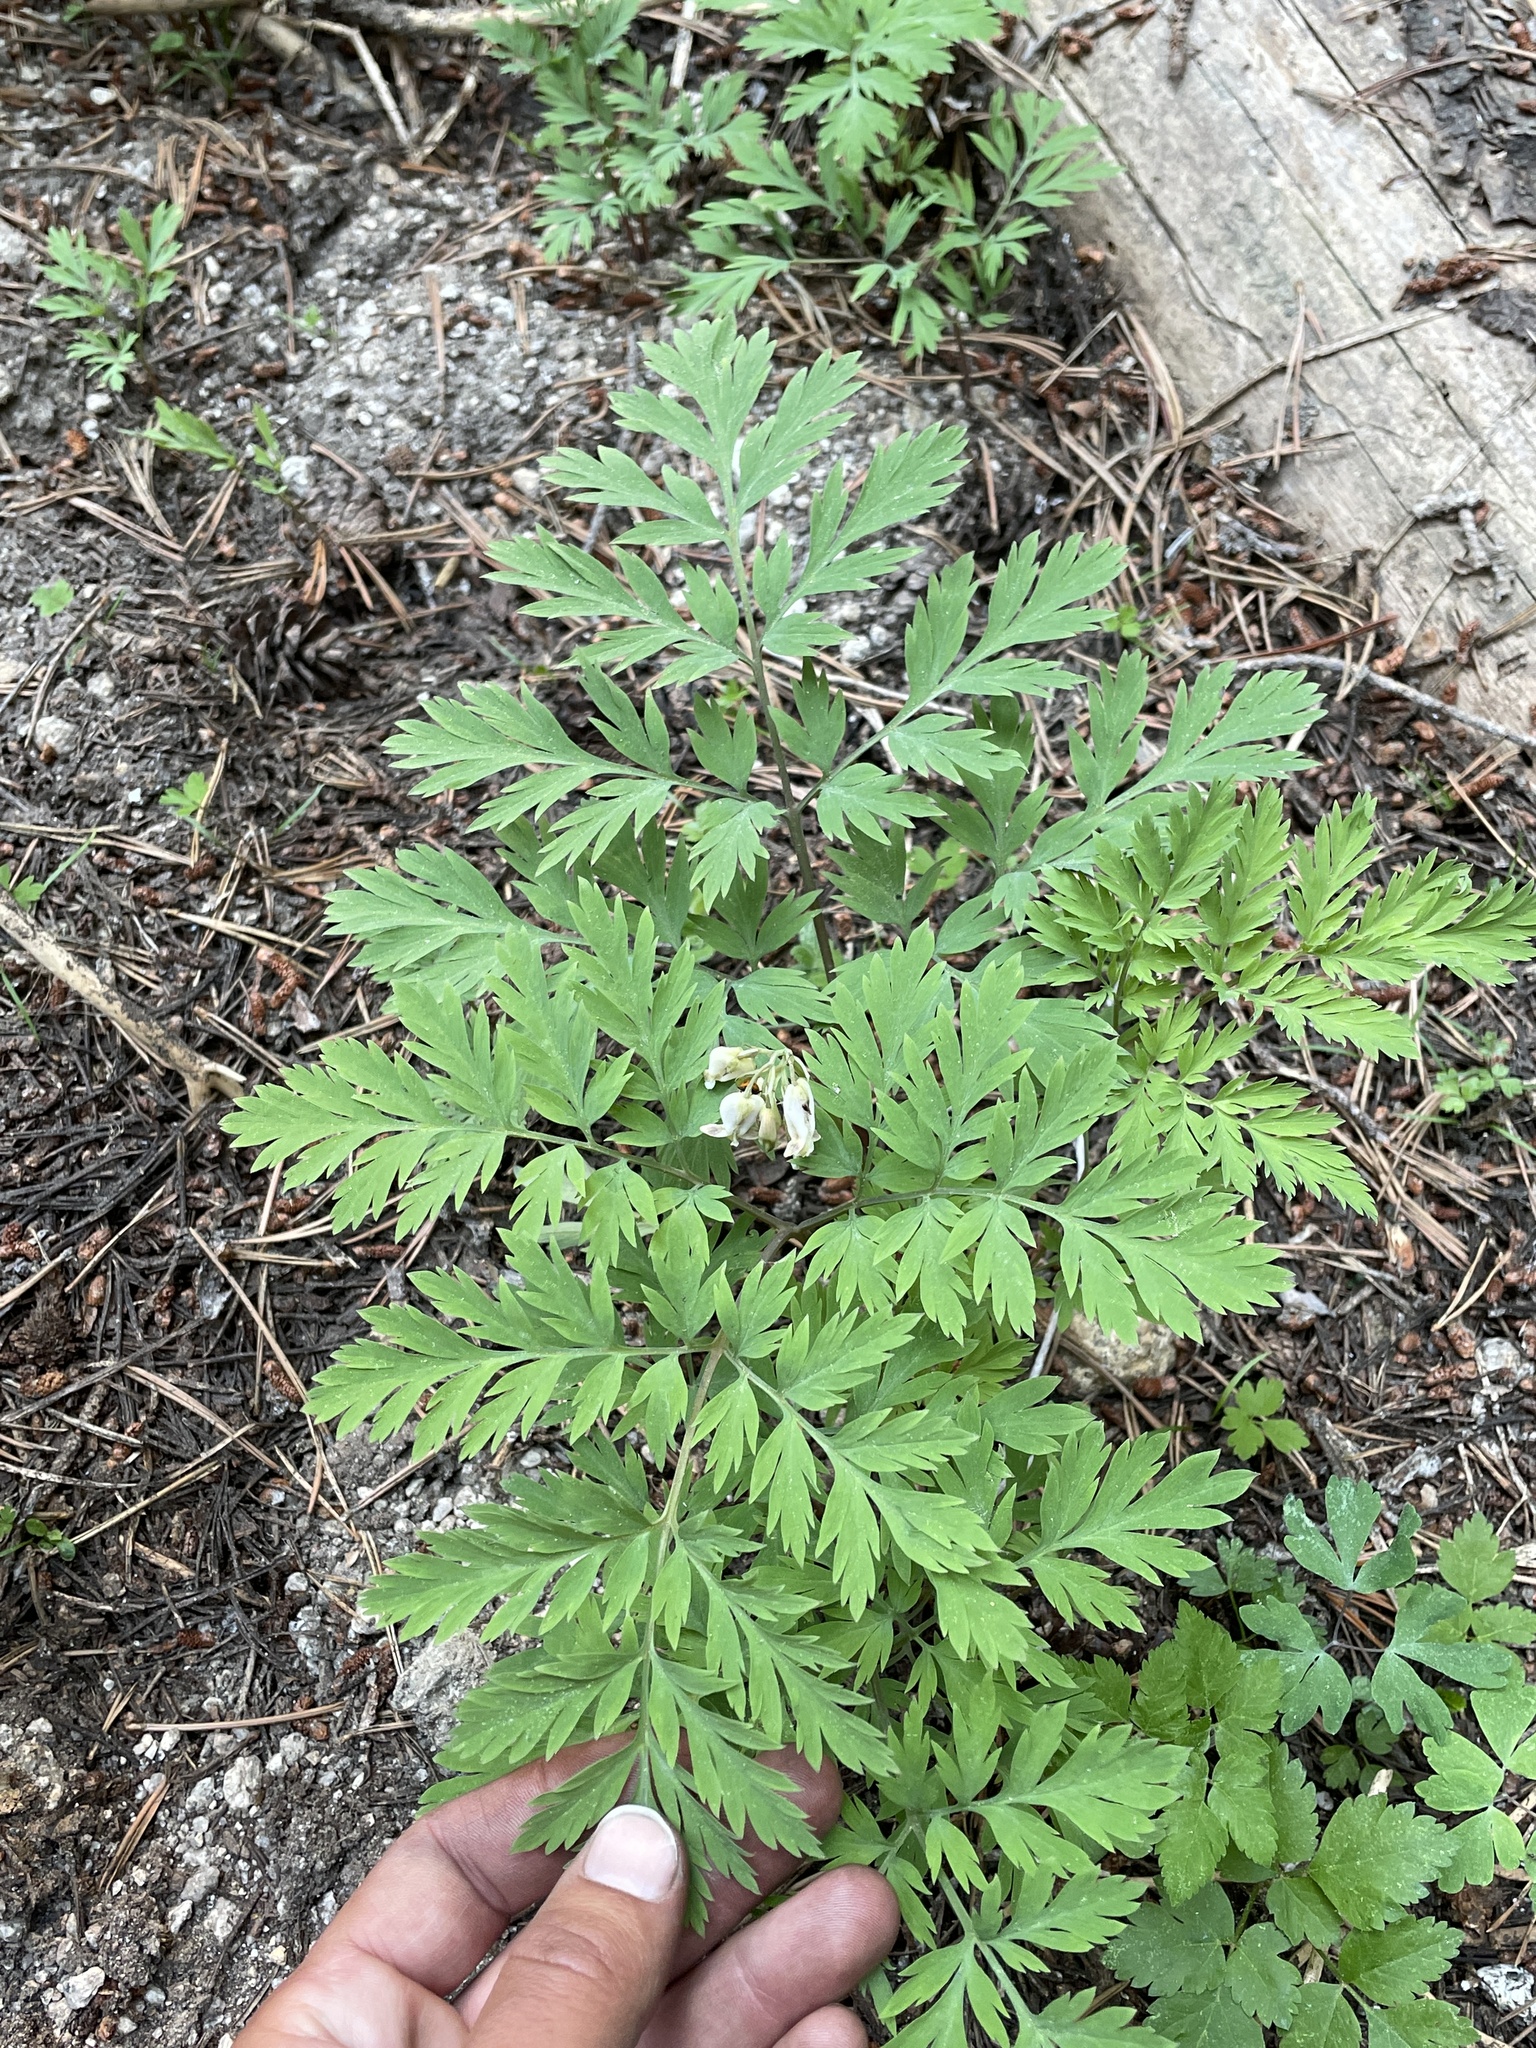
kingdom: Plantae
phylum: Tracheophyta
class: Magnoliopsida
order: Ranunculales
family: Papaveraceae
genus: Dicentra
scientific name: Dicentra formosa
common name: Bleeding-heart
